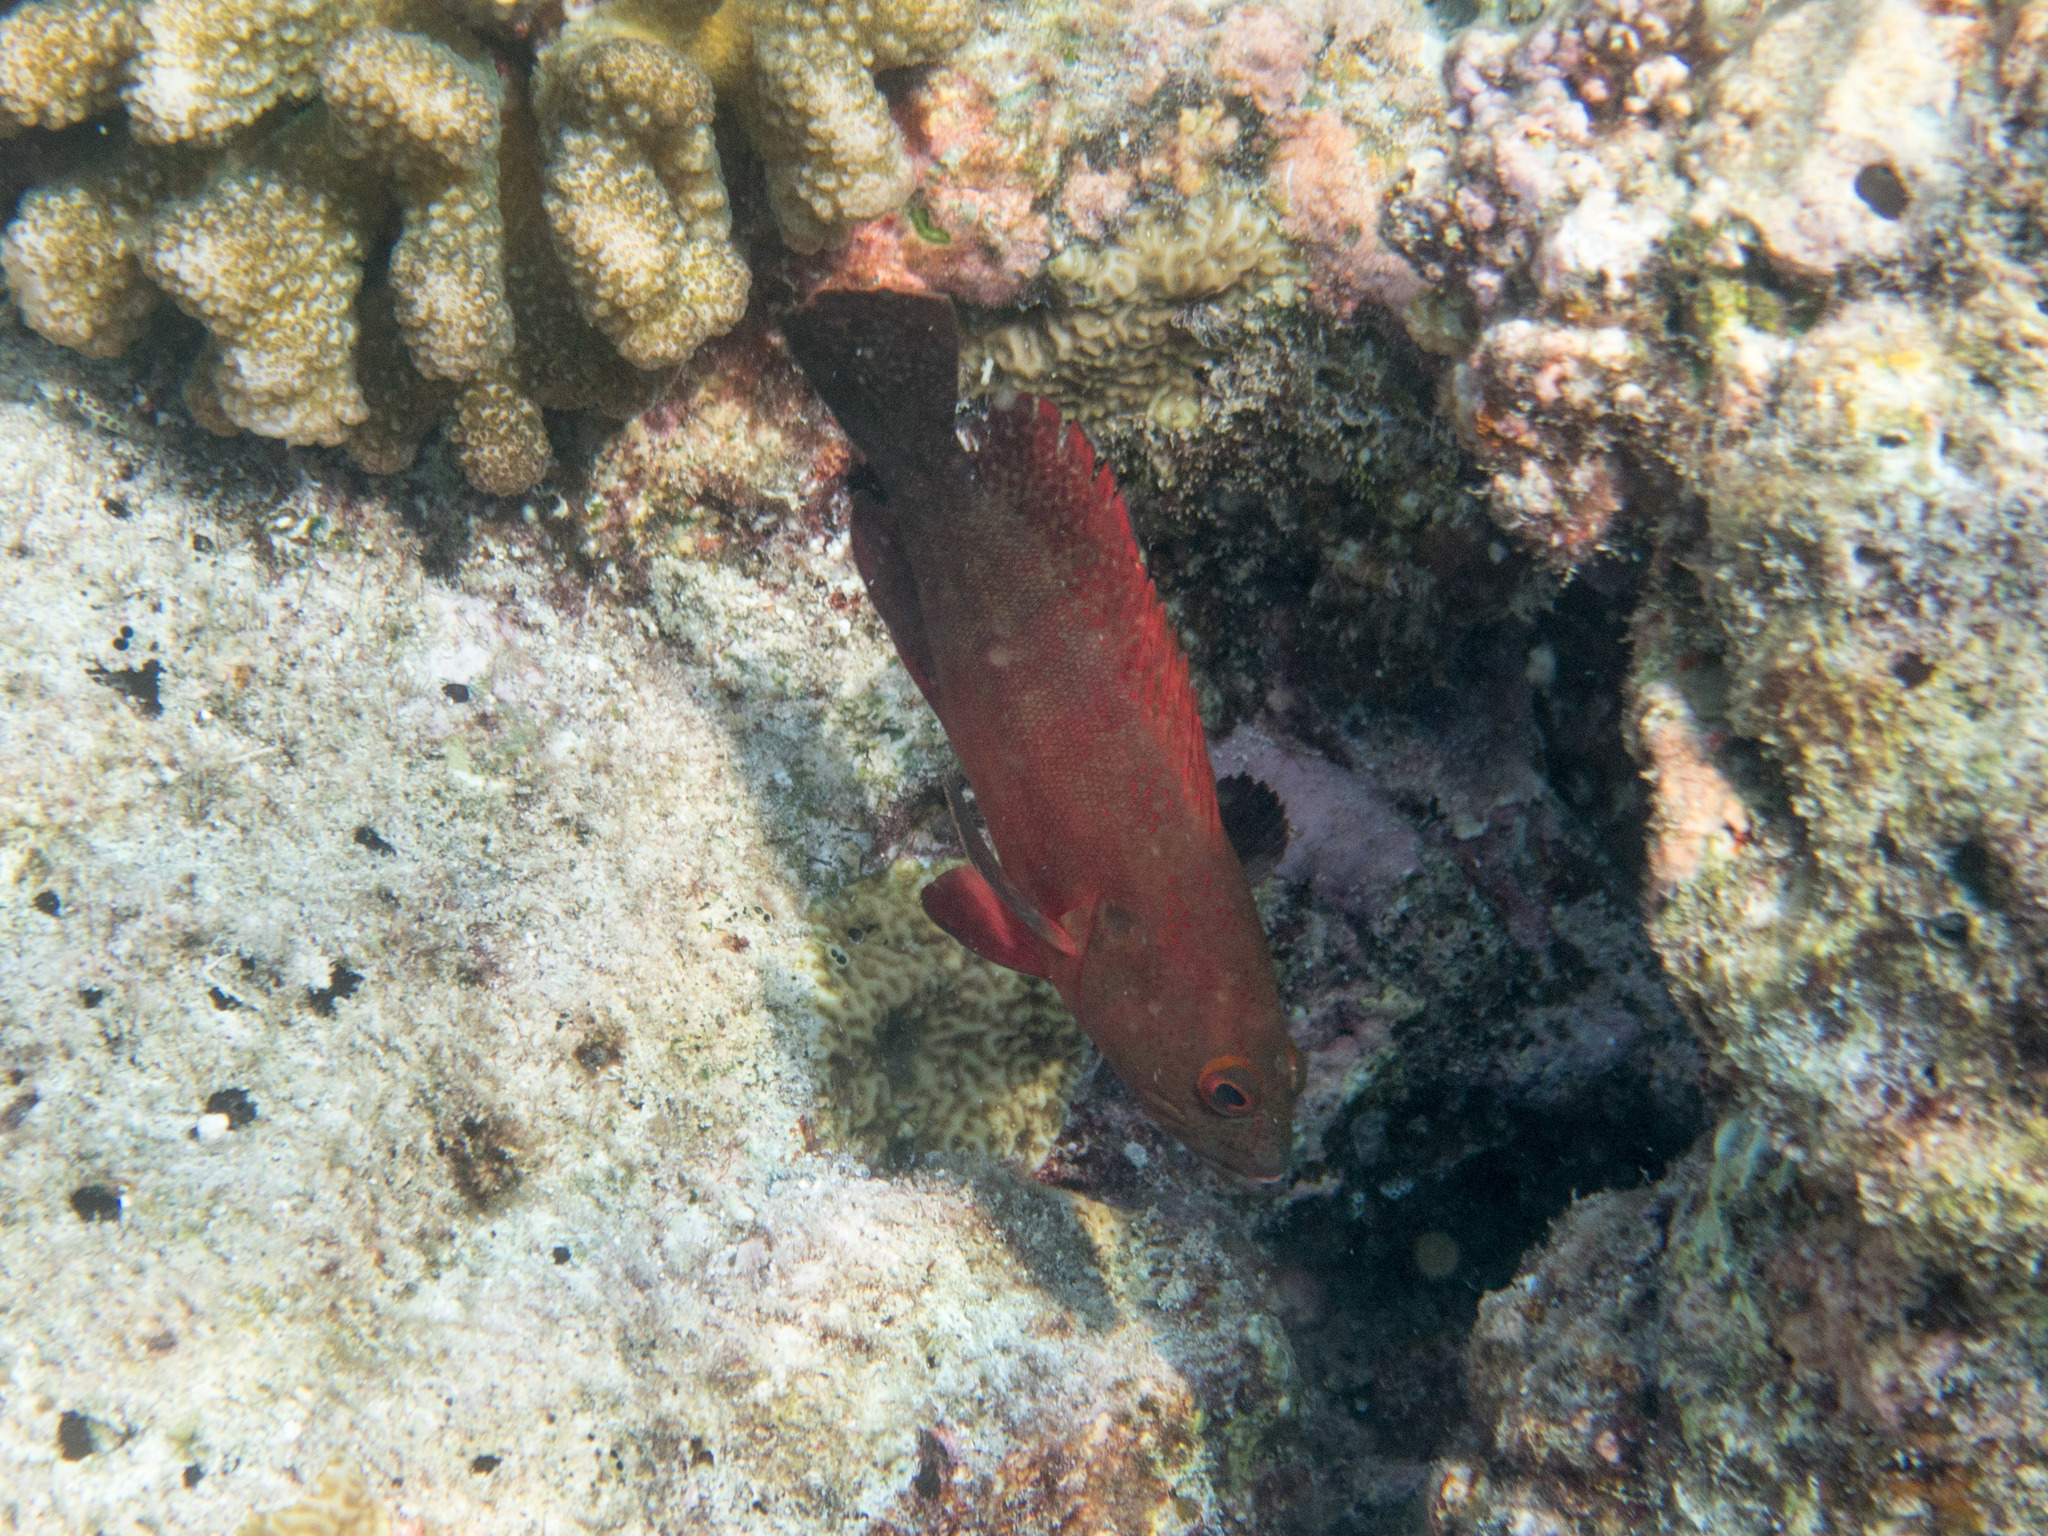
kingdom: Animalia
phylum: Chordata
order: Perciformes
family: Serranidae
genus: Cephalopholis
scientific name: Cephalopholis nigripinnis
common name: Duskyfin hind
